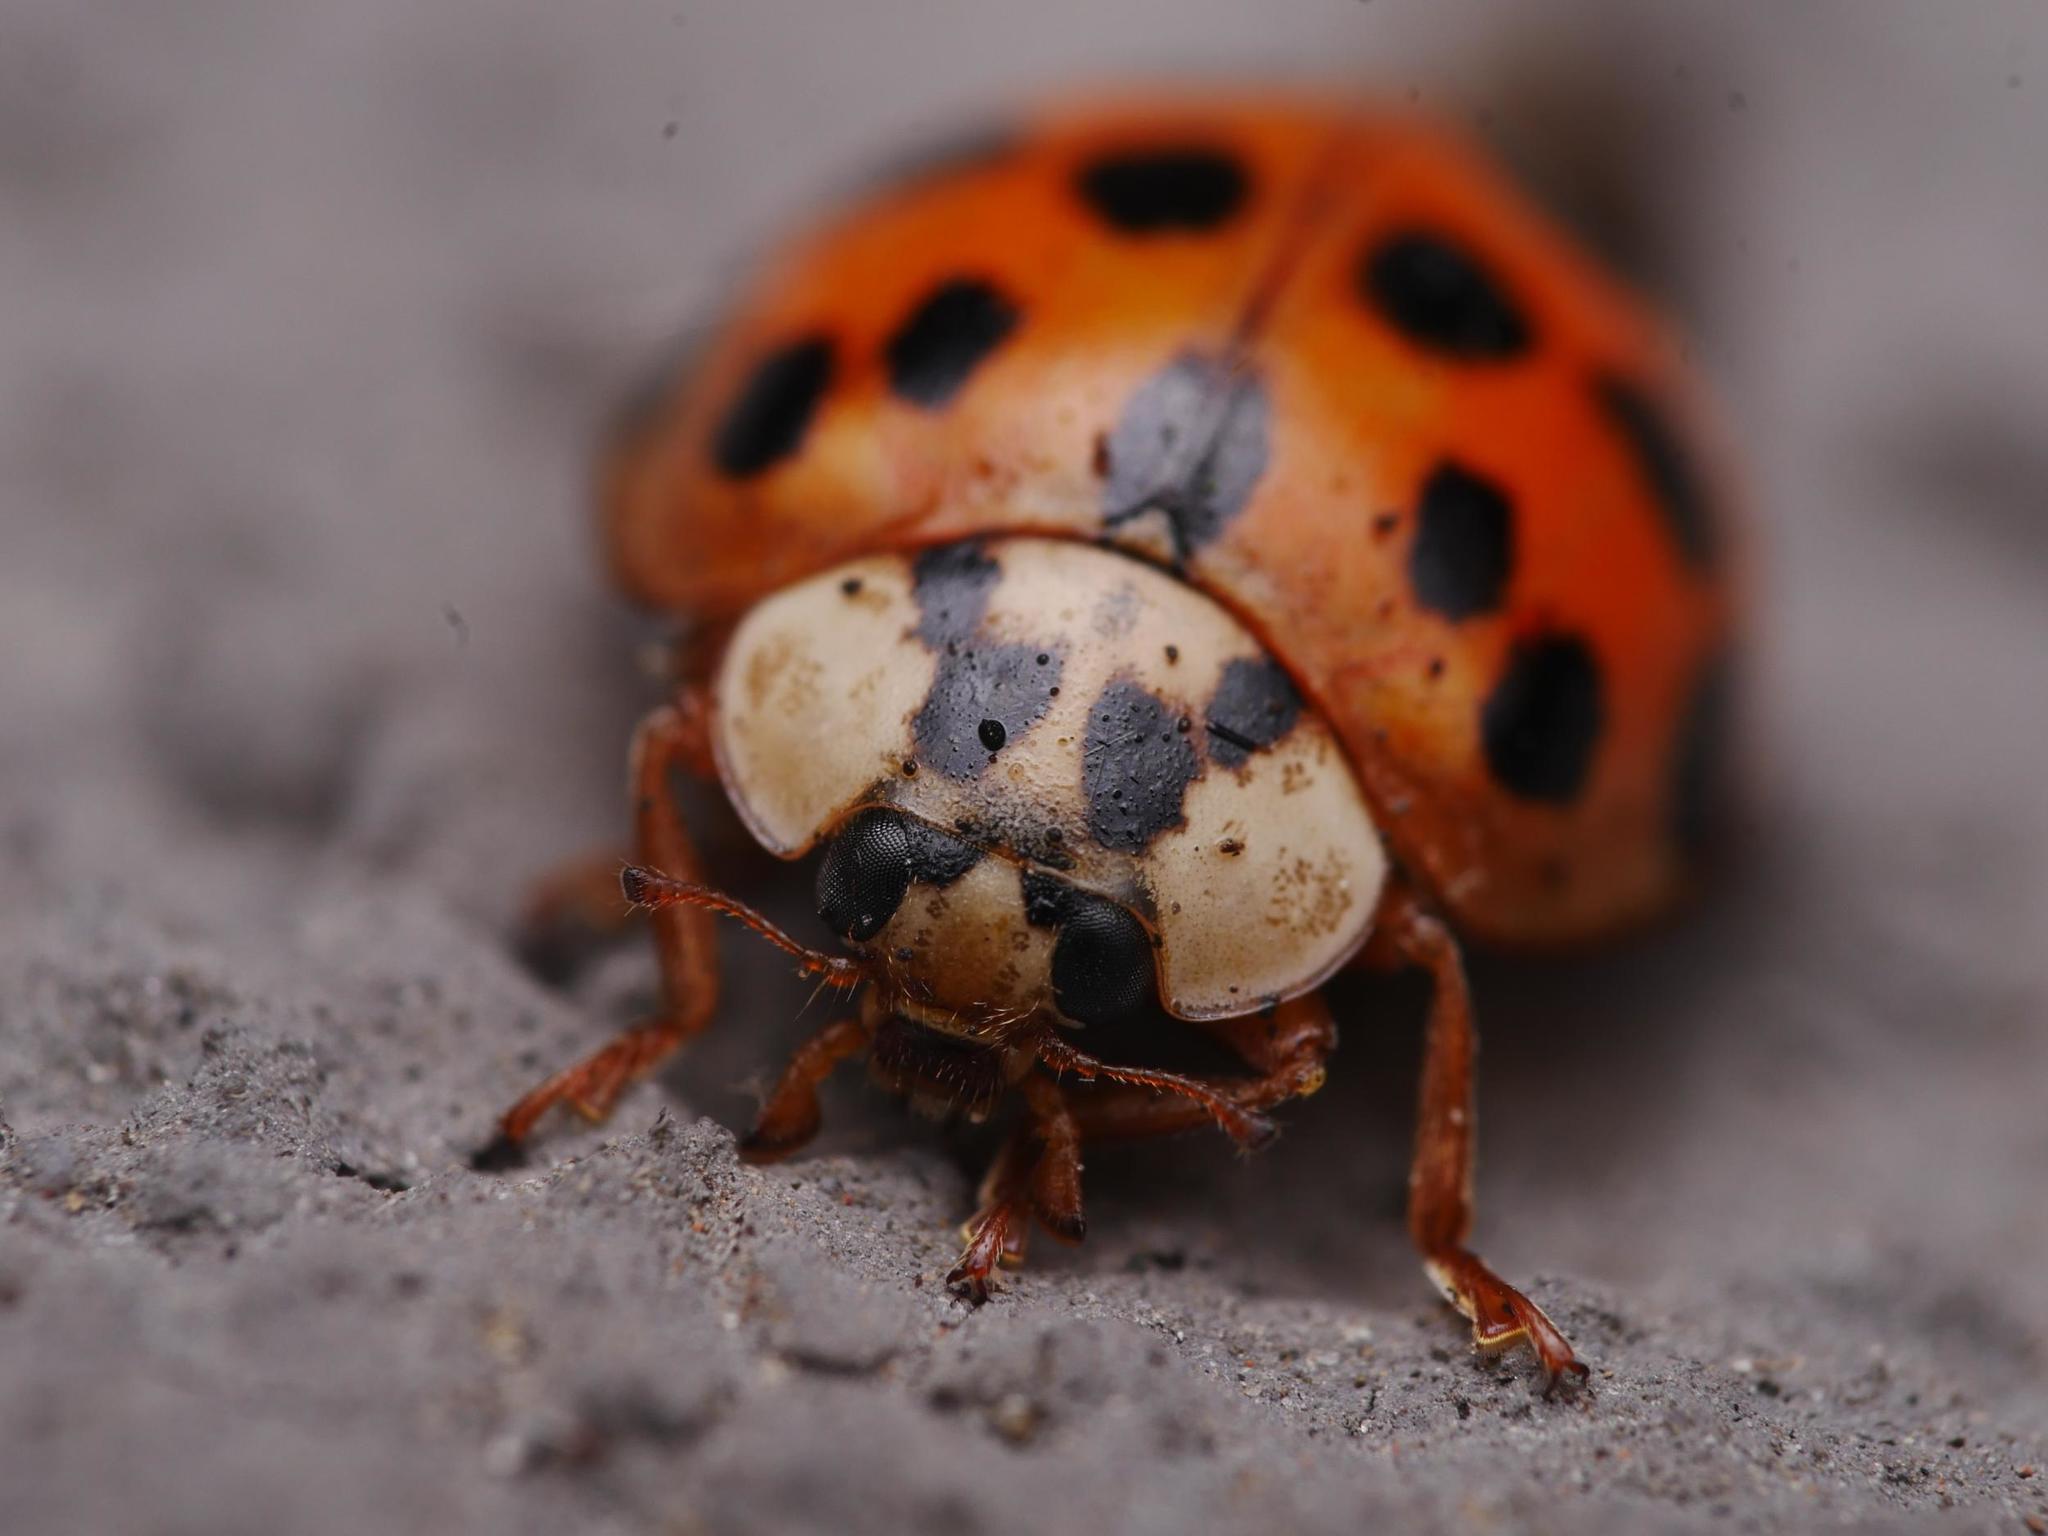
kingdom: Animalia
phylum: Arthropoda
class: Insecta
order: Coleoptera
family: Coccinellidae
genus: Harmonia
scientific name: Harmonia axyridis
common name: Harlequin ladybird
